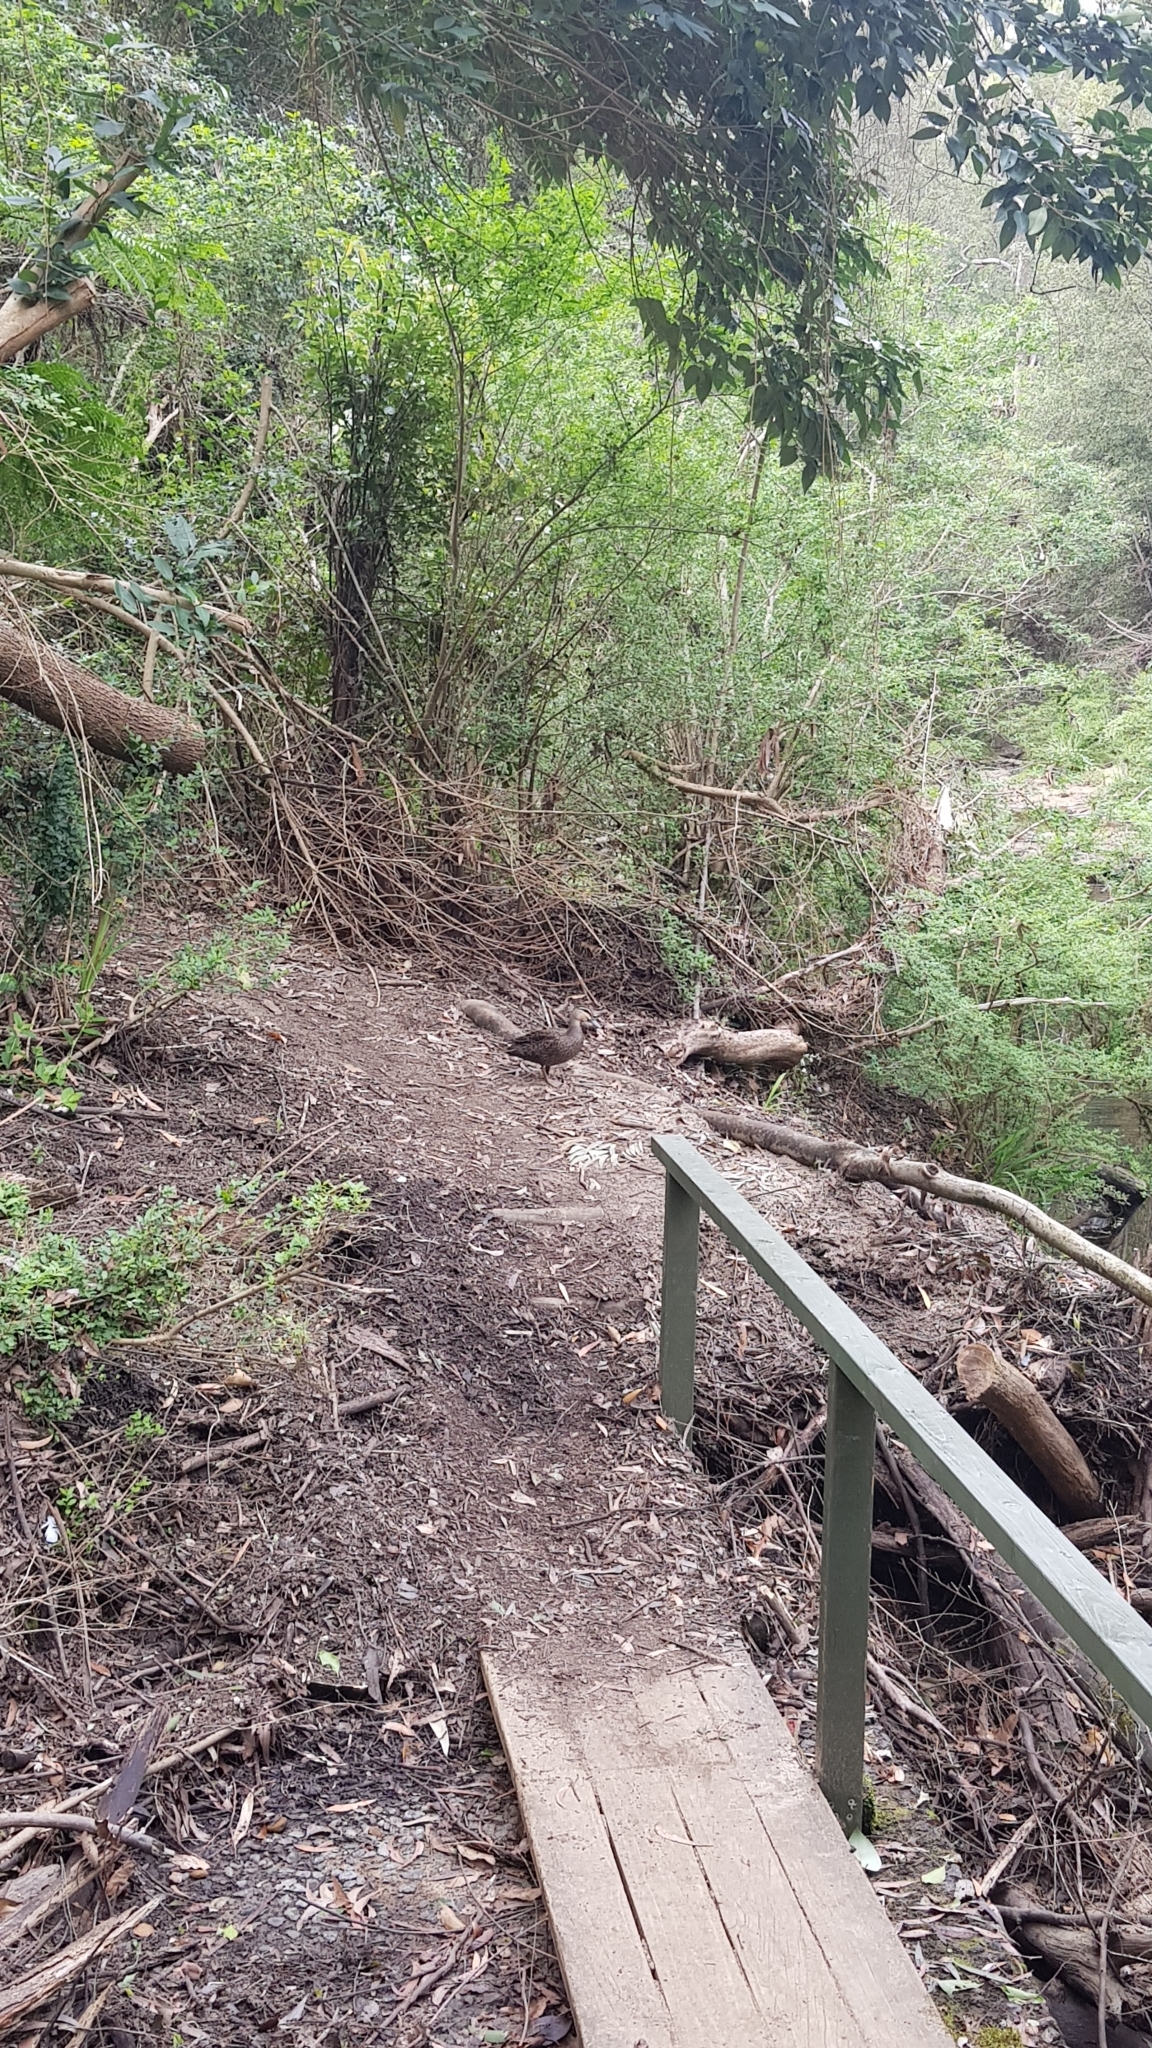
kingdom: Animalia
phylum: Chordata
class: Aves
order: Anseriformes
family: Anatidae
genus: Anas
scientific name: Anas superciliosa
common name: Pacific black duck
